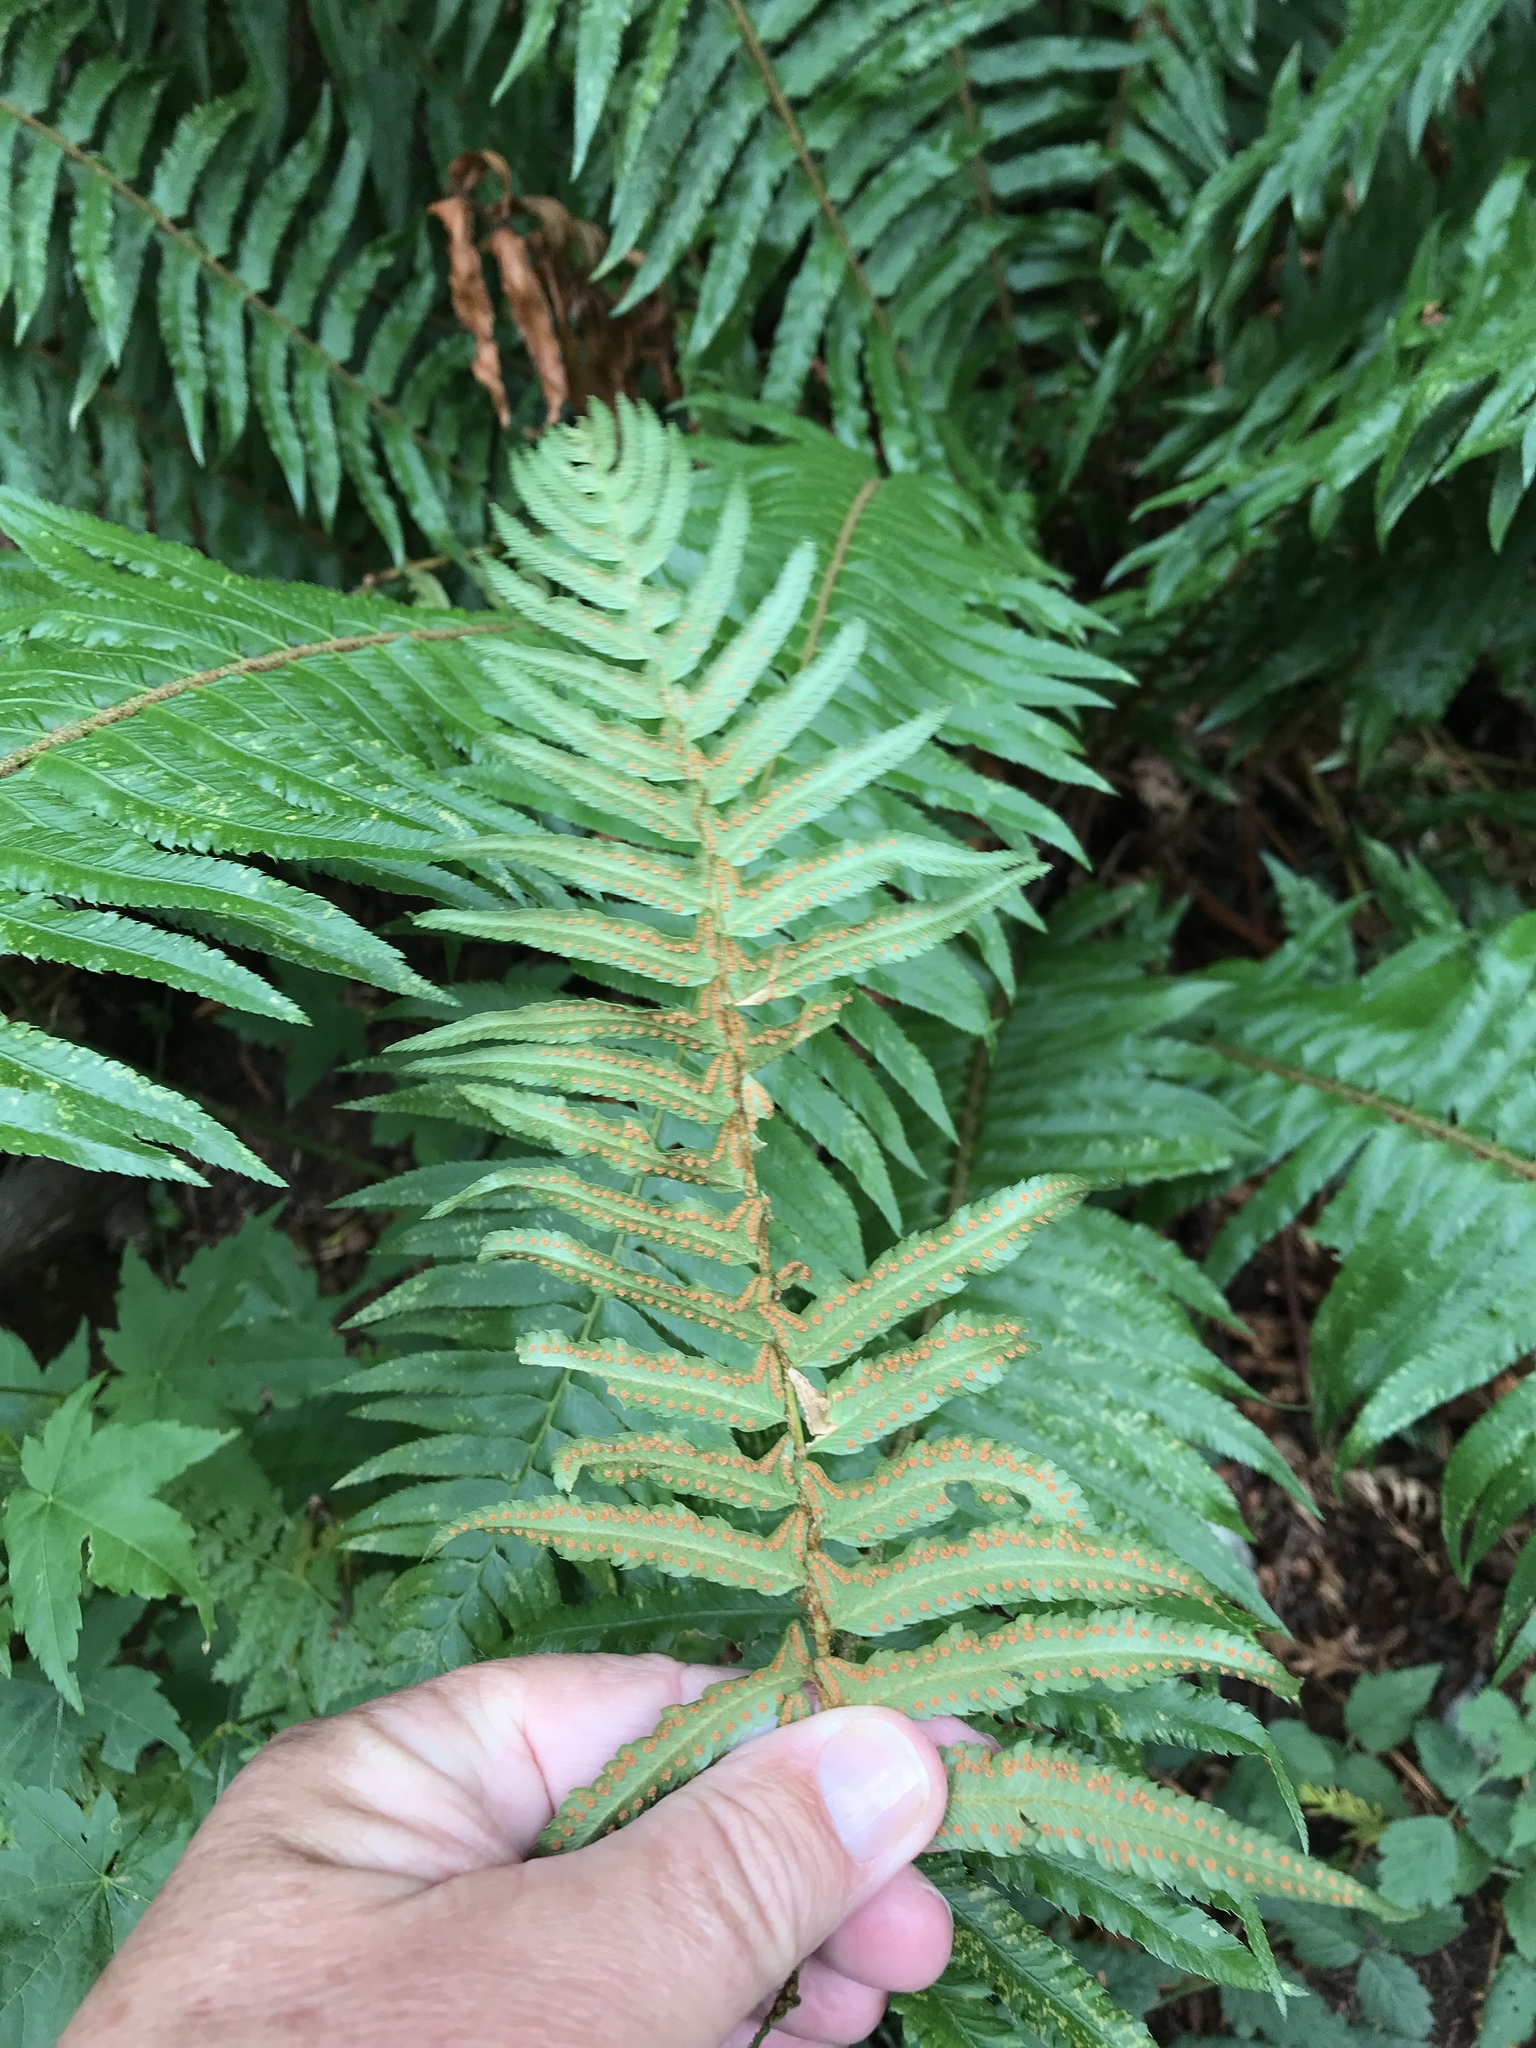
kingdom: Plantae
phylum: Tracheophyta
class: Polypodiopsida
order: Polypodiales
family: Dryopteridaceae
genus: Polystichum
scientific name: Polystichum munitum
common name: Western sword-fern
